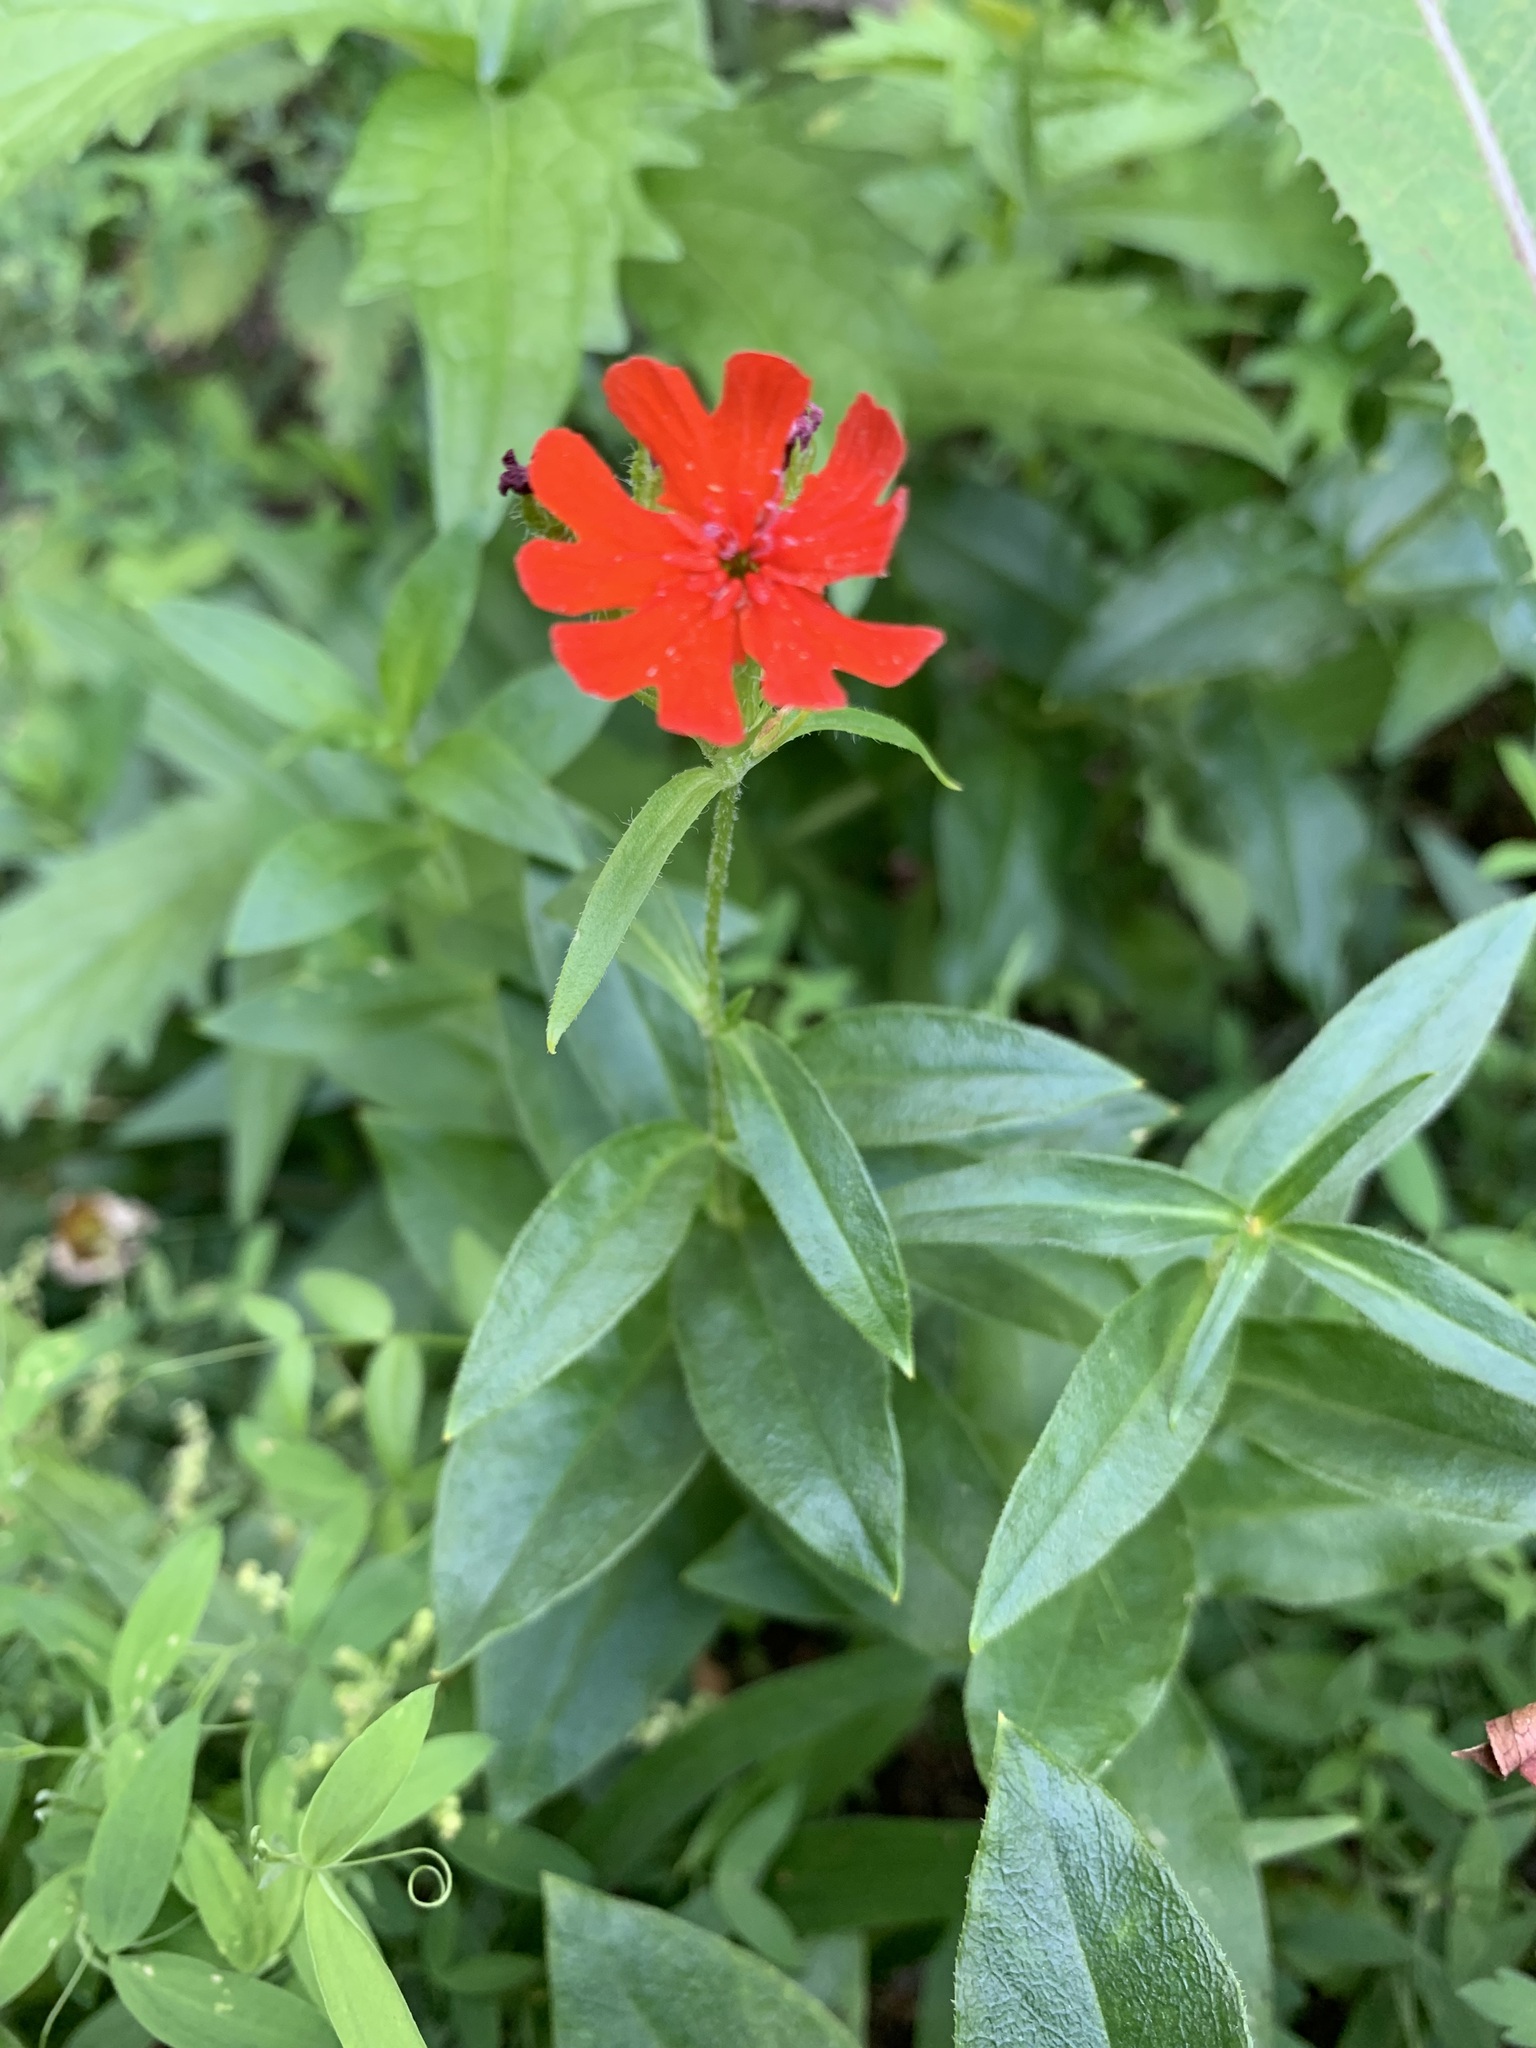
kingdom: Plantae
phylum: Tracheophyta
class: Magnoliopsida
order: Caryophyllales
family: Caryophyllaceae
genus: Silene
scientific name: Silene chalcedonica
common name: Maltese-cross
